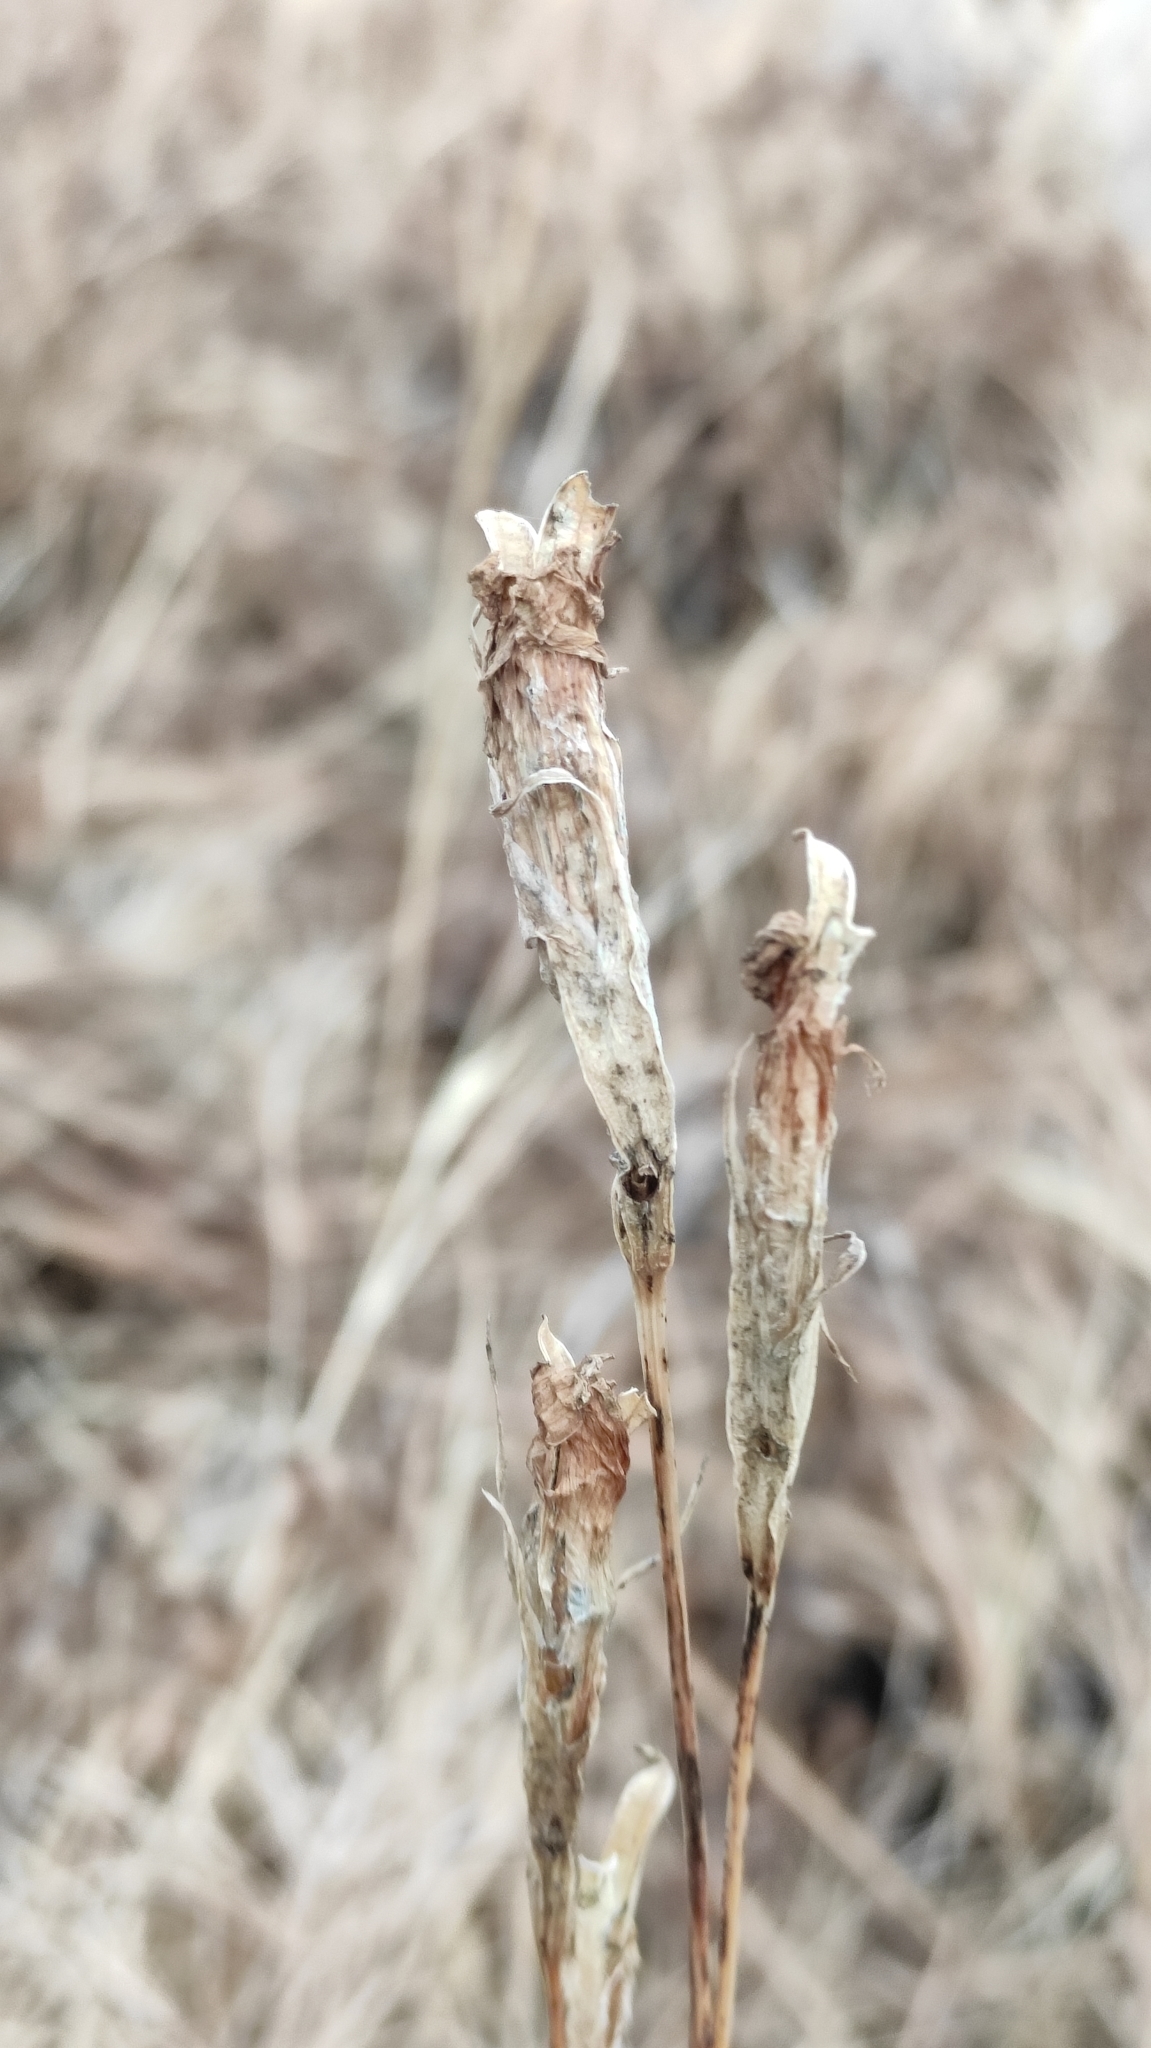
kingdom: Plantae
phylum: Tracheophyta
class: Magnoliopsida
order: Gentianales
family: Gentianaceae
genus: Gentianopsis
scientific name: Gentianopsis barbata
